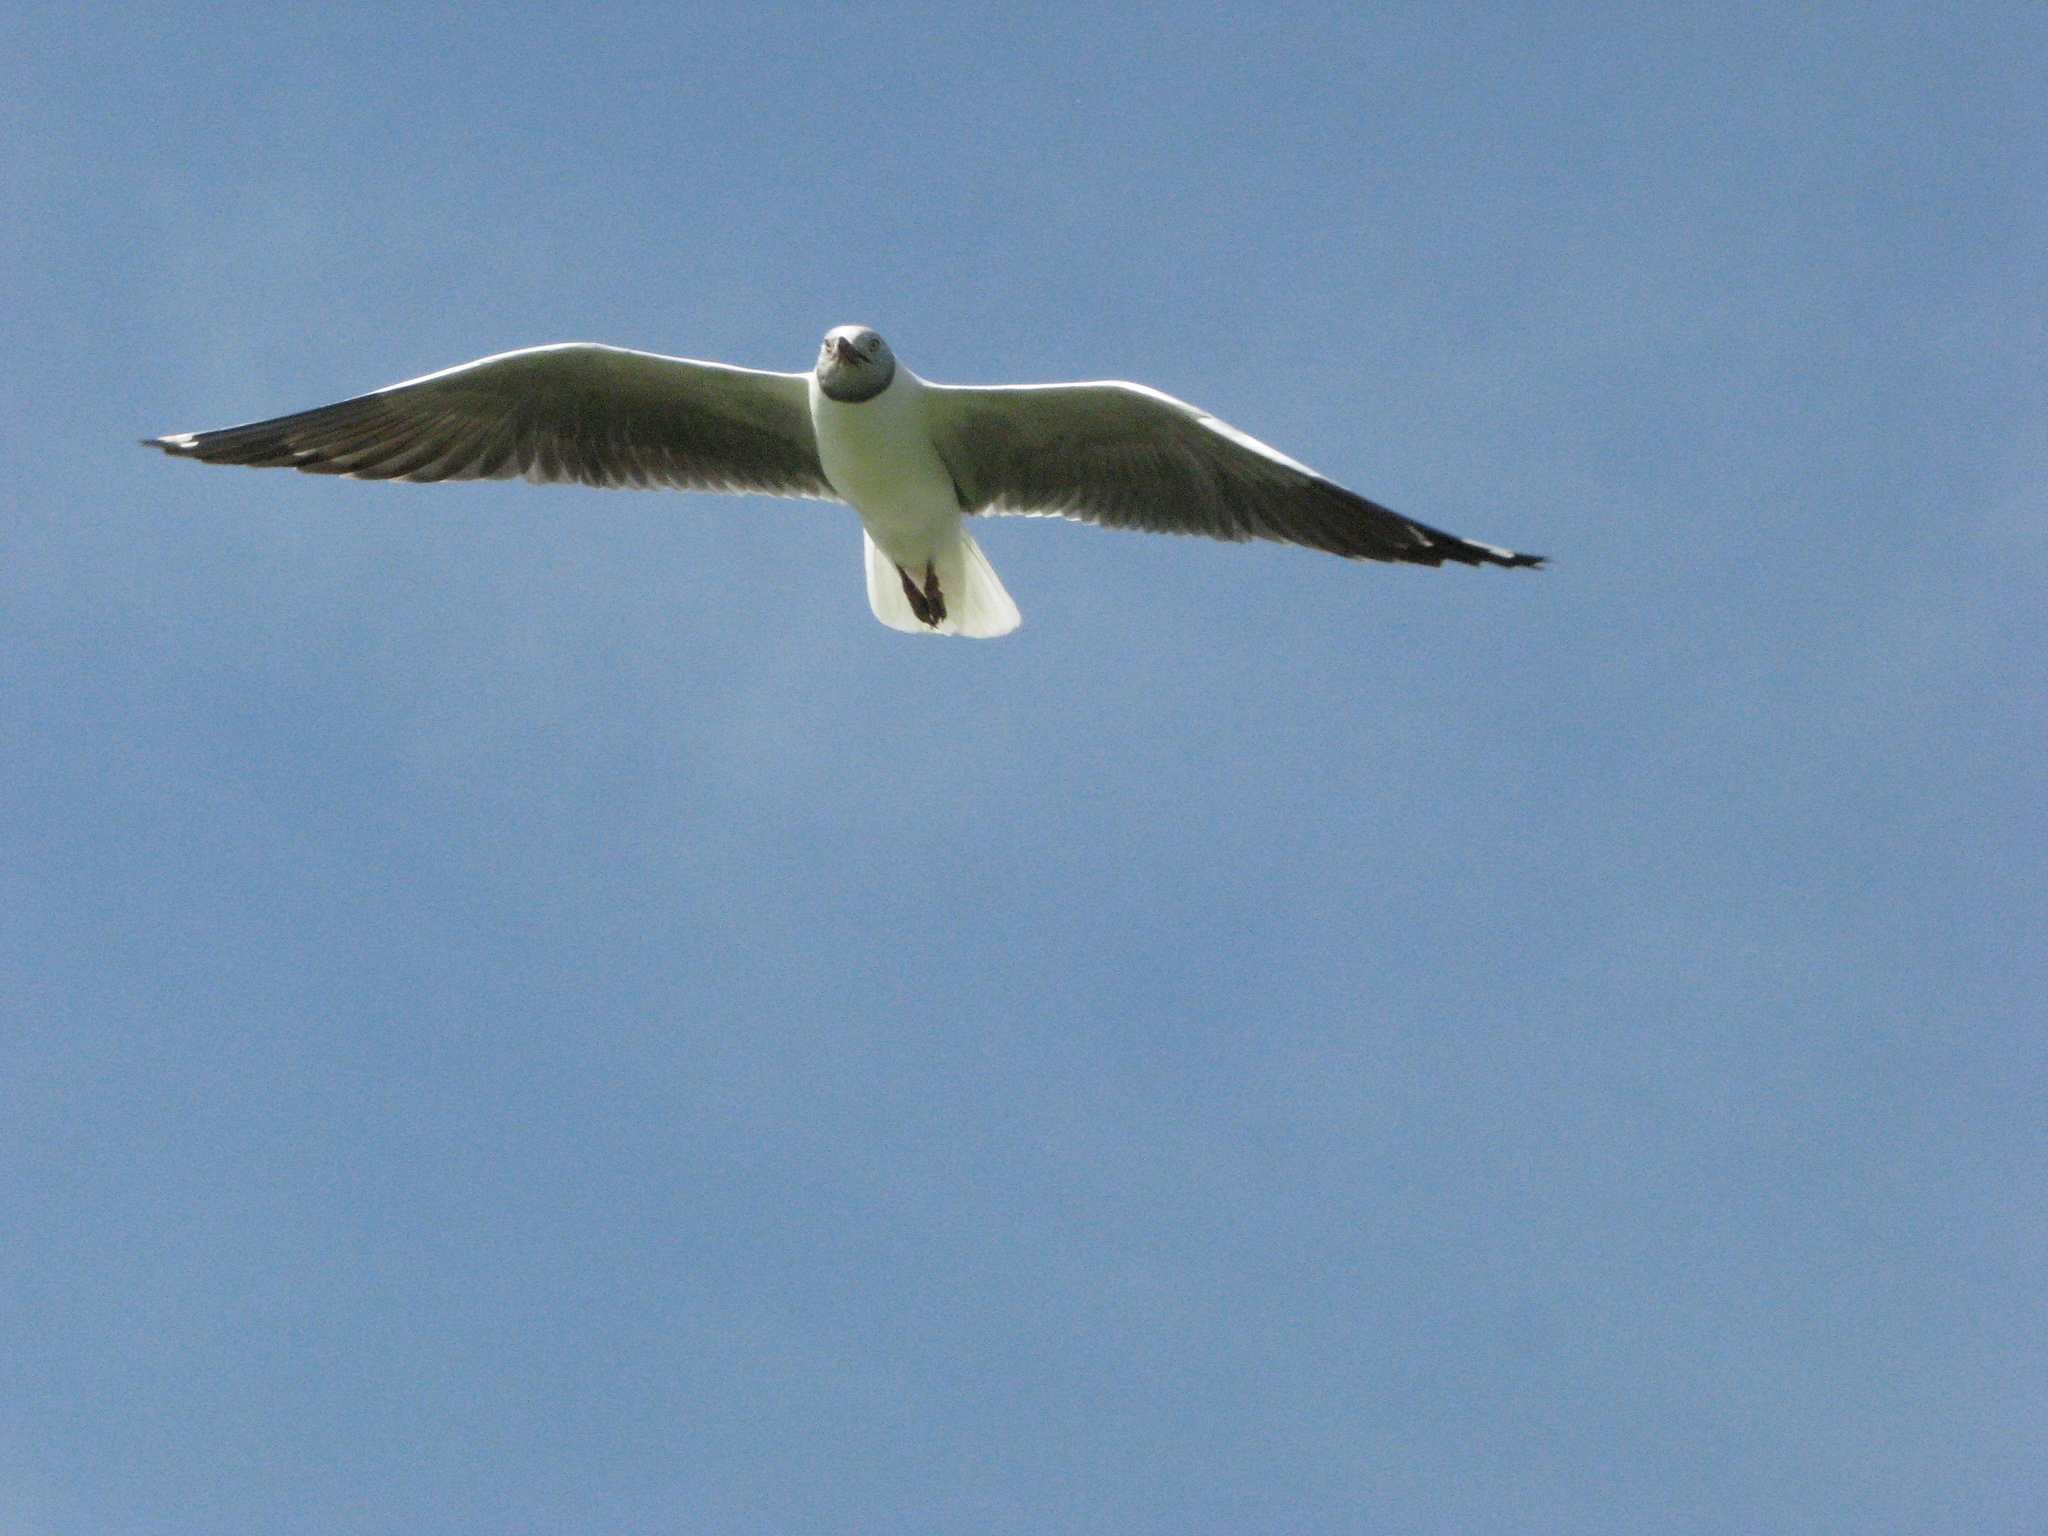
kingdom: Animalia
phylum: Chordata
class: Aves
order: Charadriiformes
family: Laridae
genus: Chroicocephalus
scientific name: Chroicocephalus cirrocephalus
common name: Grey-headed gull
